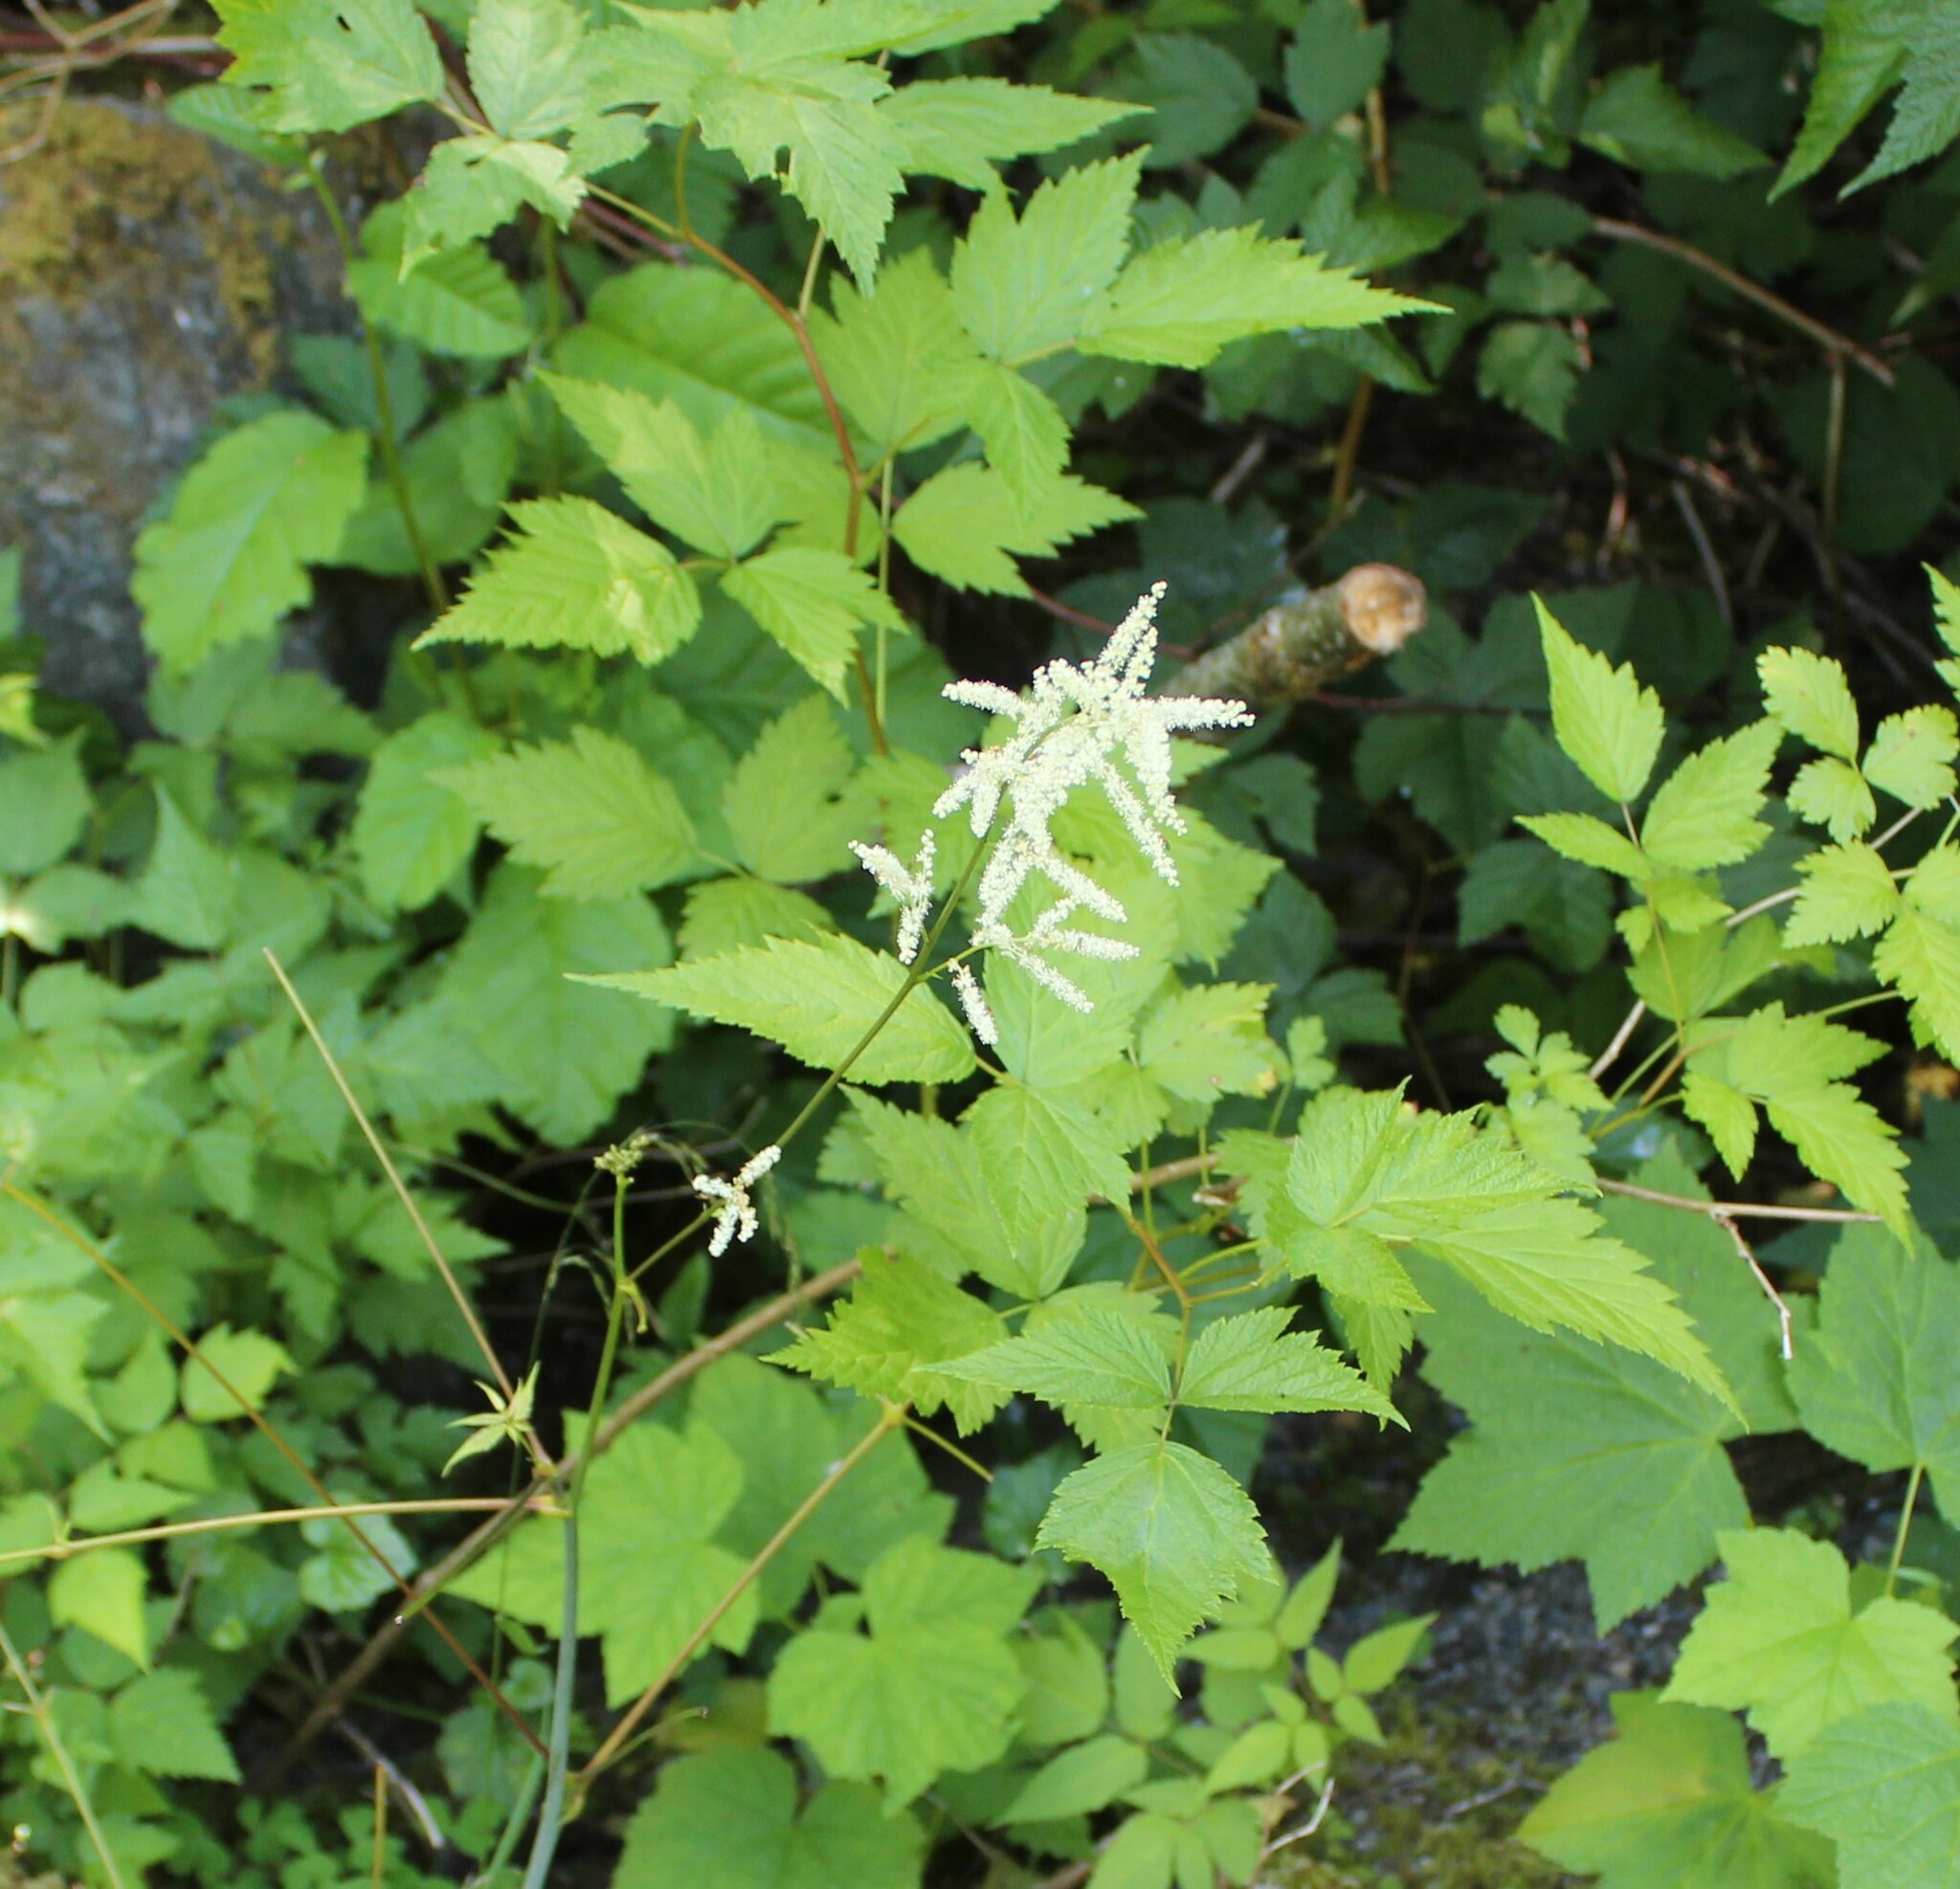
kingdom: Plantae
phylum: Tracheophyta
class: Magnoliopsida
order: Rosales
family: Rosaceae
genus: Aruncus
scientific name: Aruncus dioicus
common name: Buck's-beard
